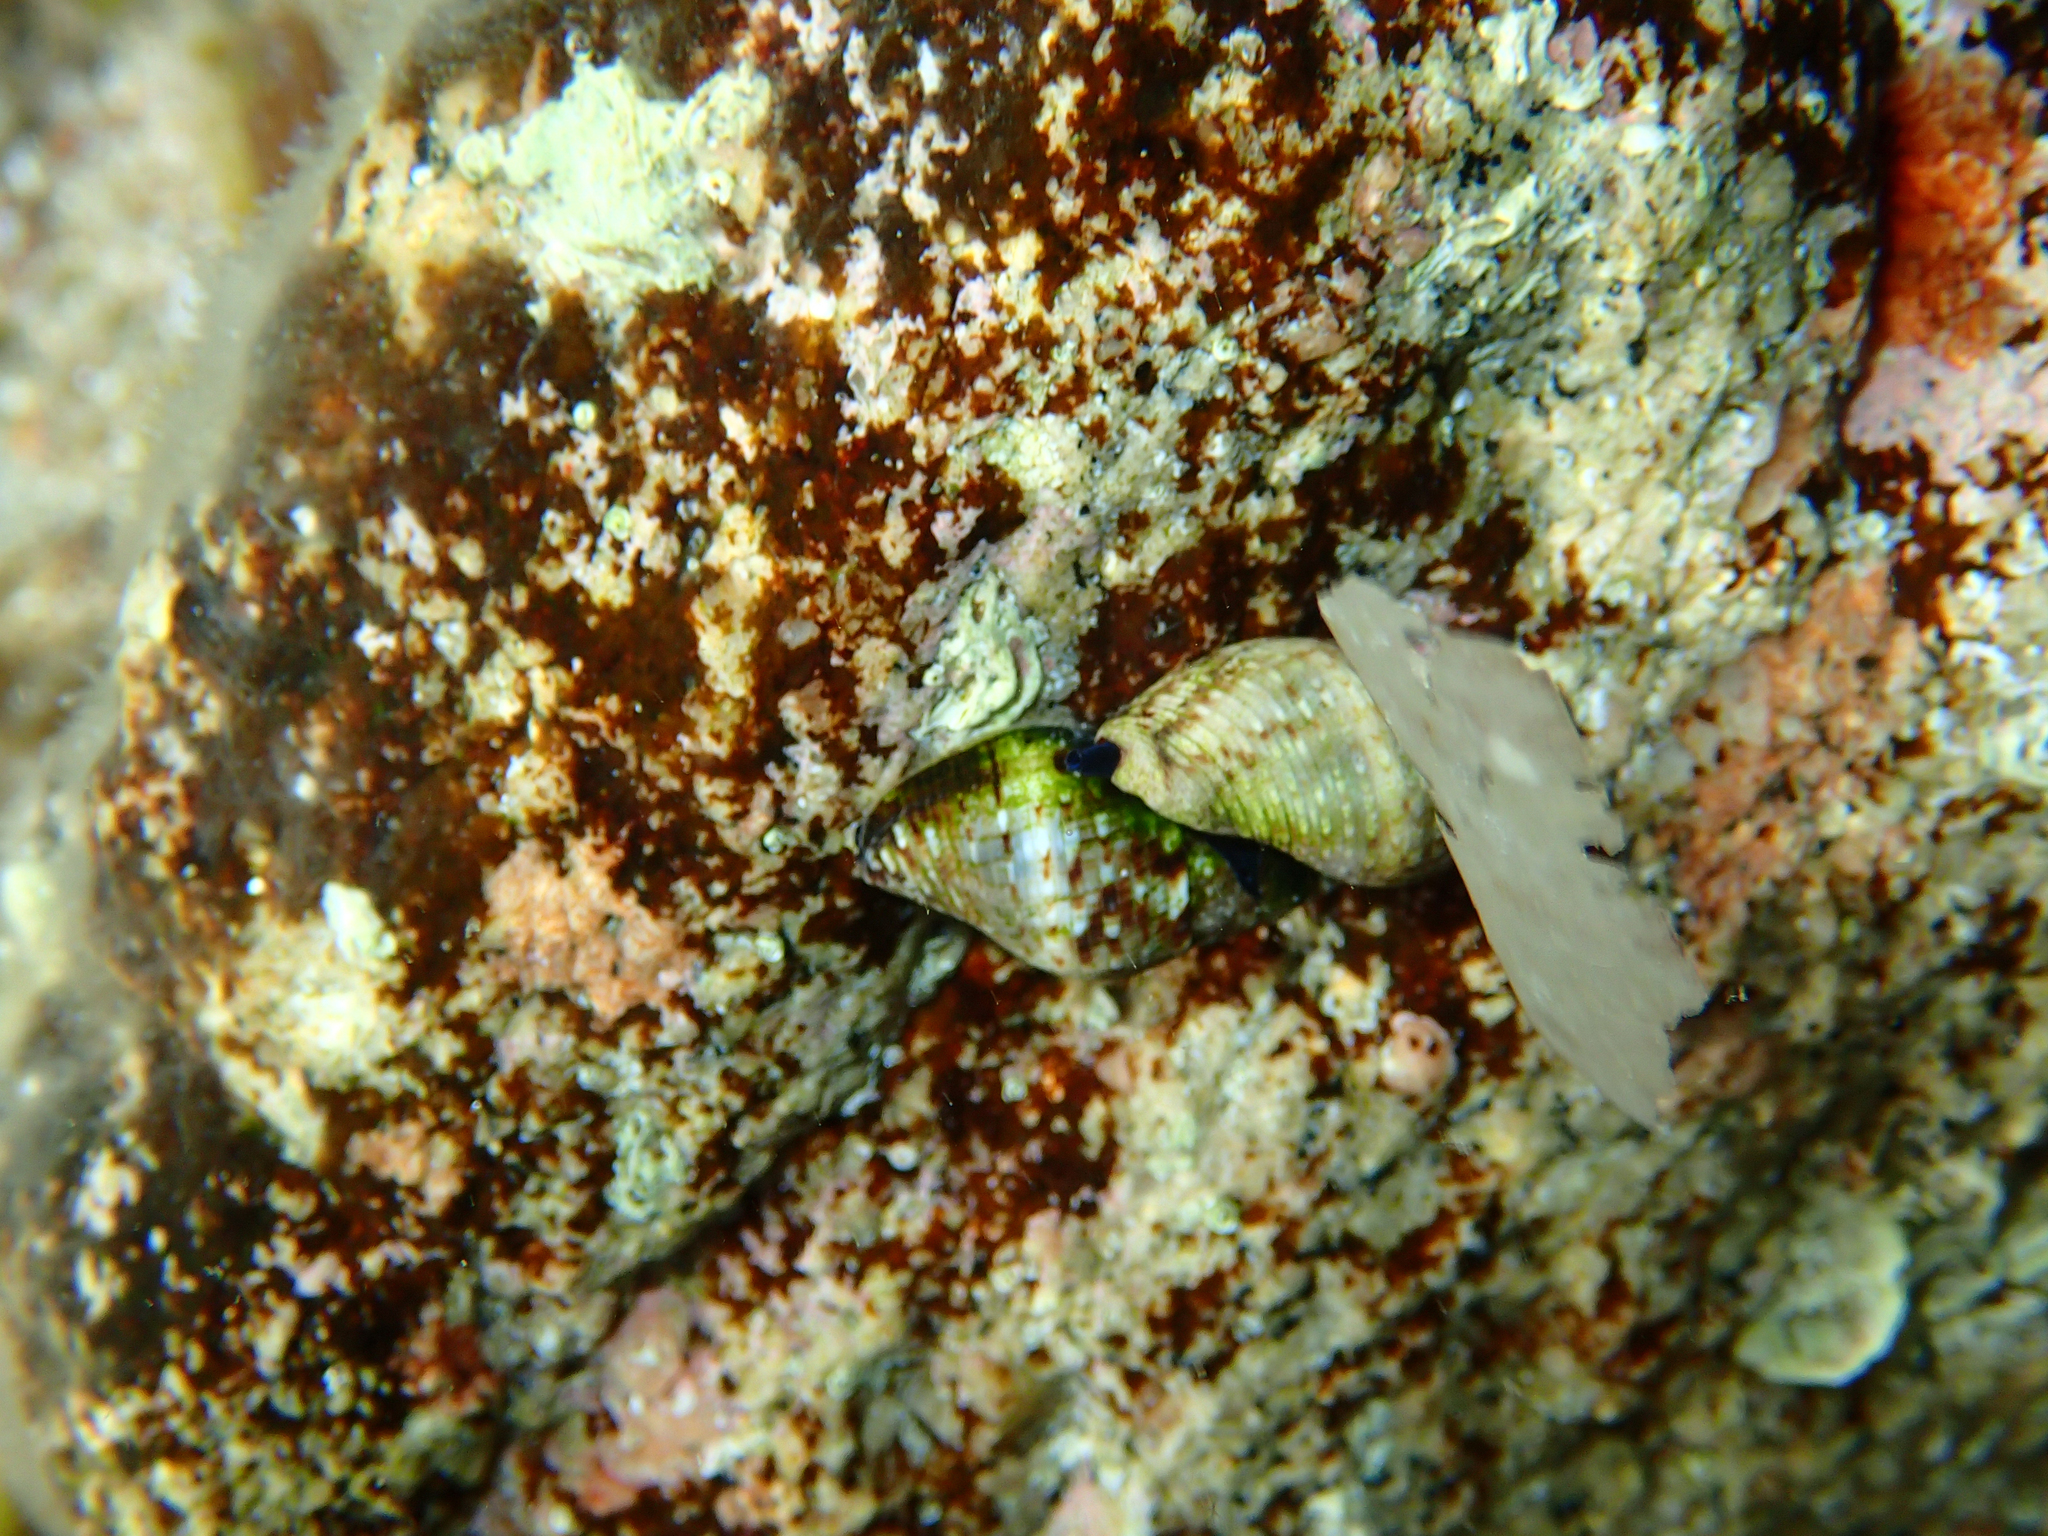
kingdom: Animalia
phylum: Mollusca
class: Gastropoda
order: Neogastropoda
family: Pisaniidae
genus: Pisania
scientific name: Pisania striata
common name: Spotted pisania
